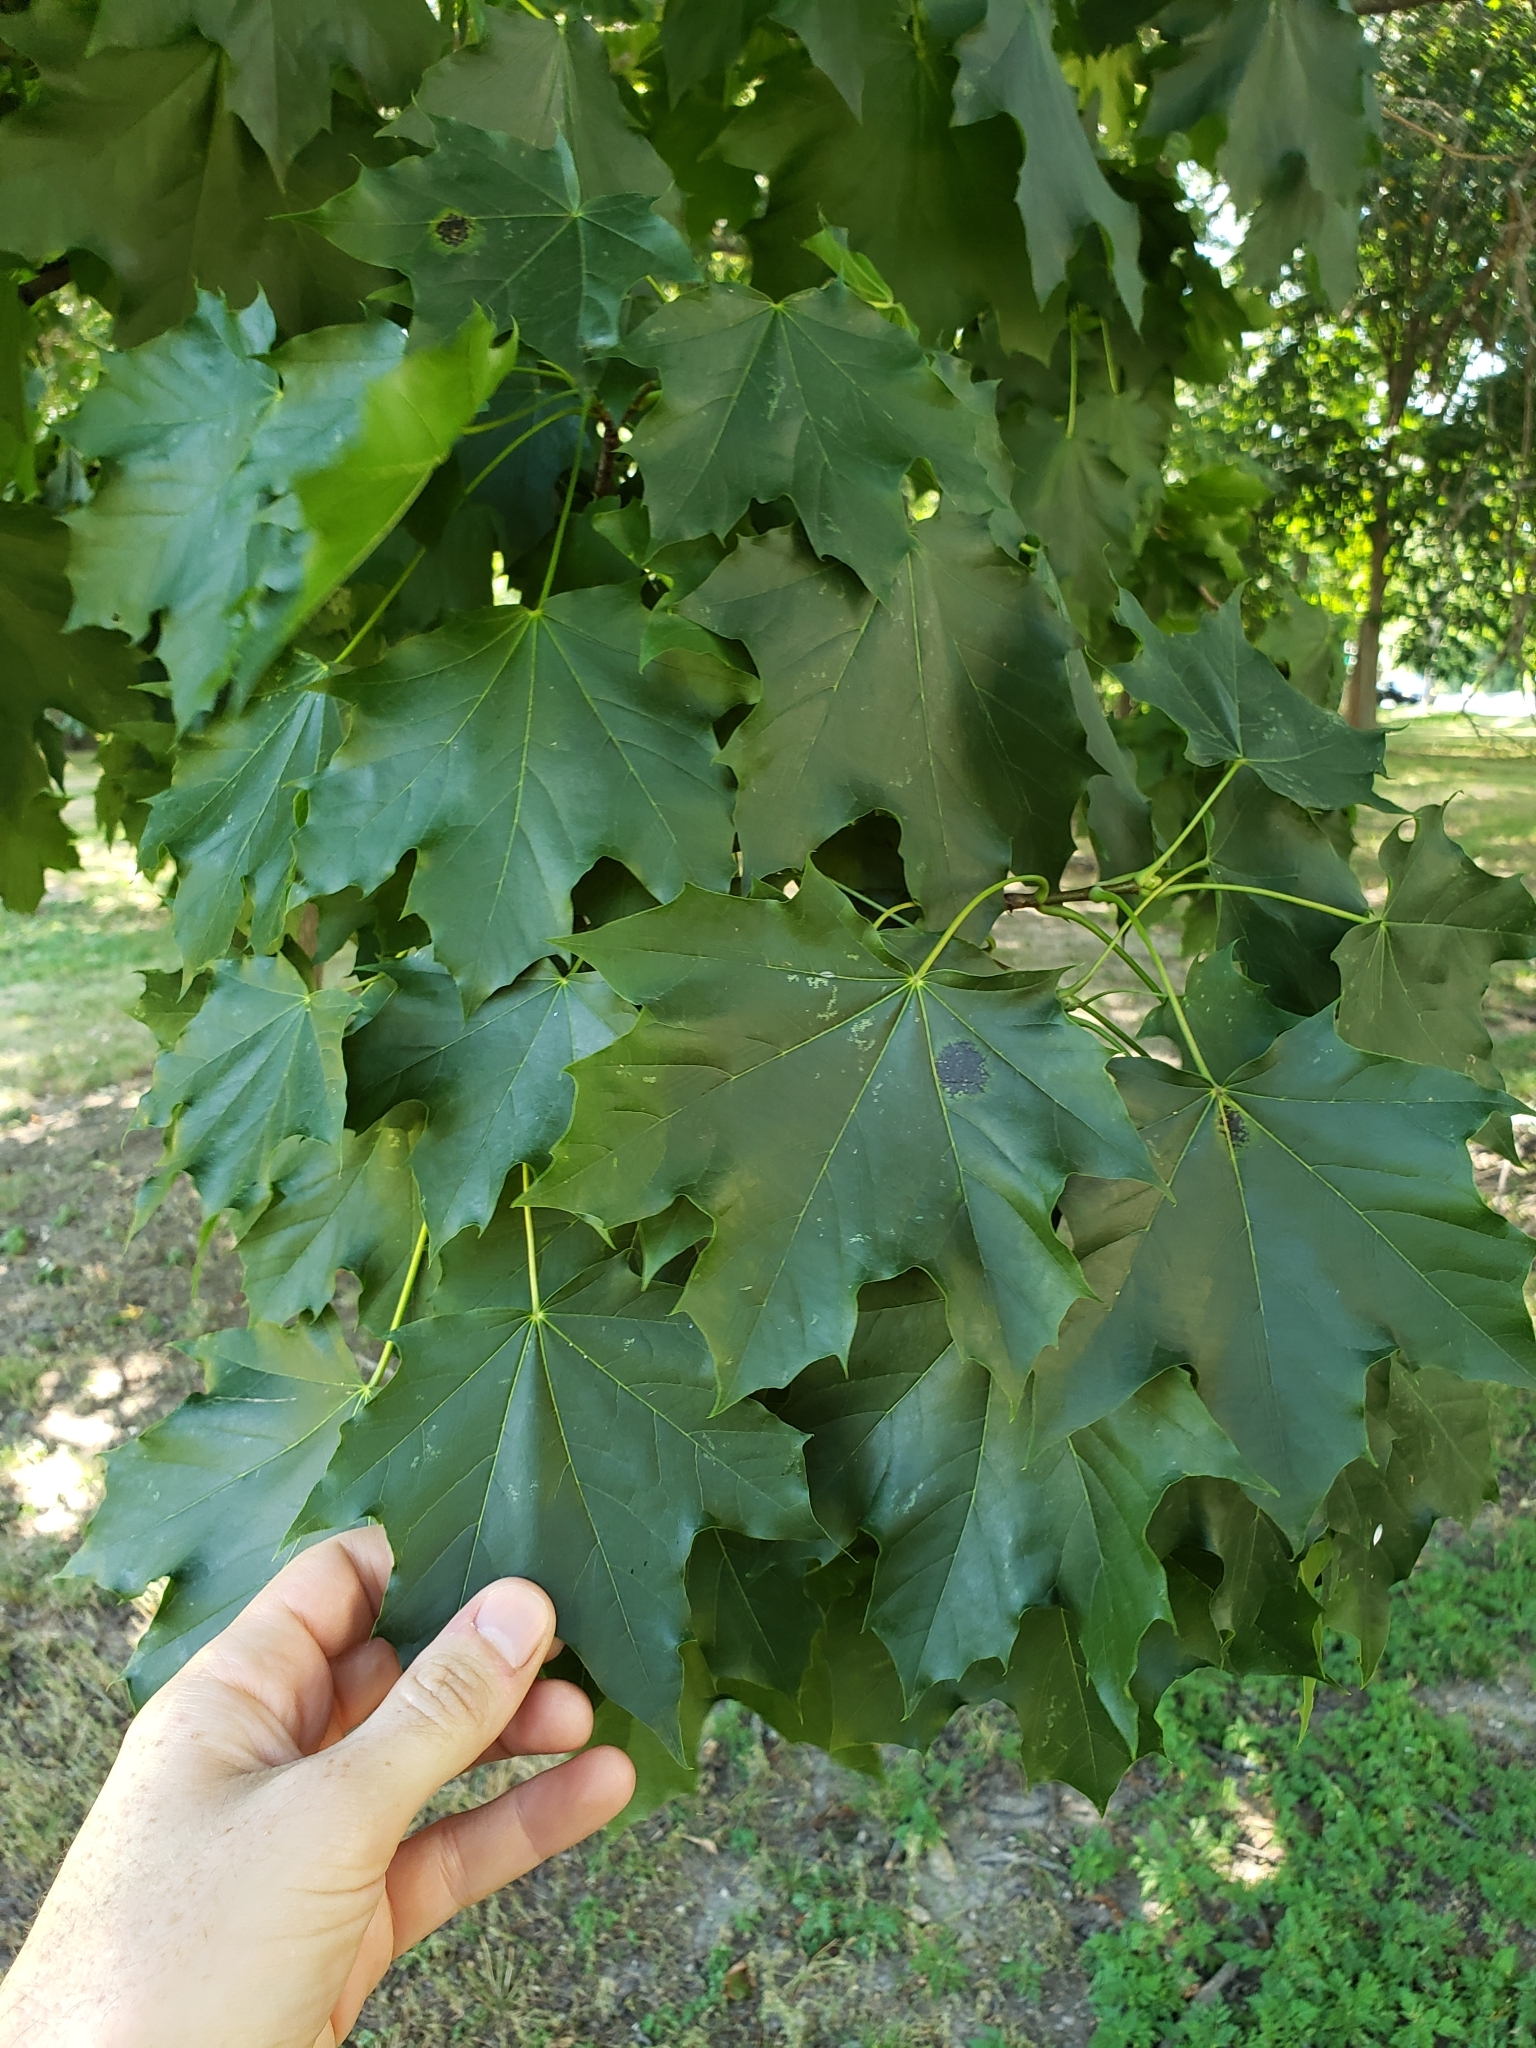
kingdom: Plantae
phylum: Tracheophyta
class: Magnoliopsida
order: Sapindales
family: Sapindaceae
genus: Acer
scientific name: Acer platanoides
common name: Norway maple
